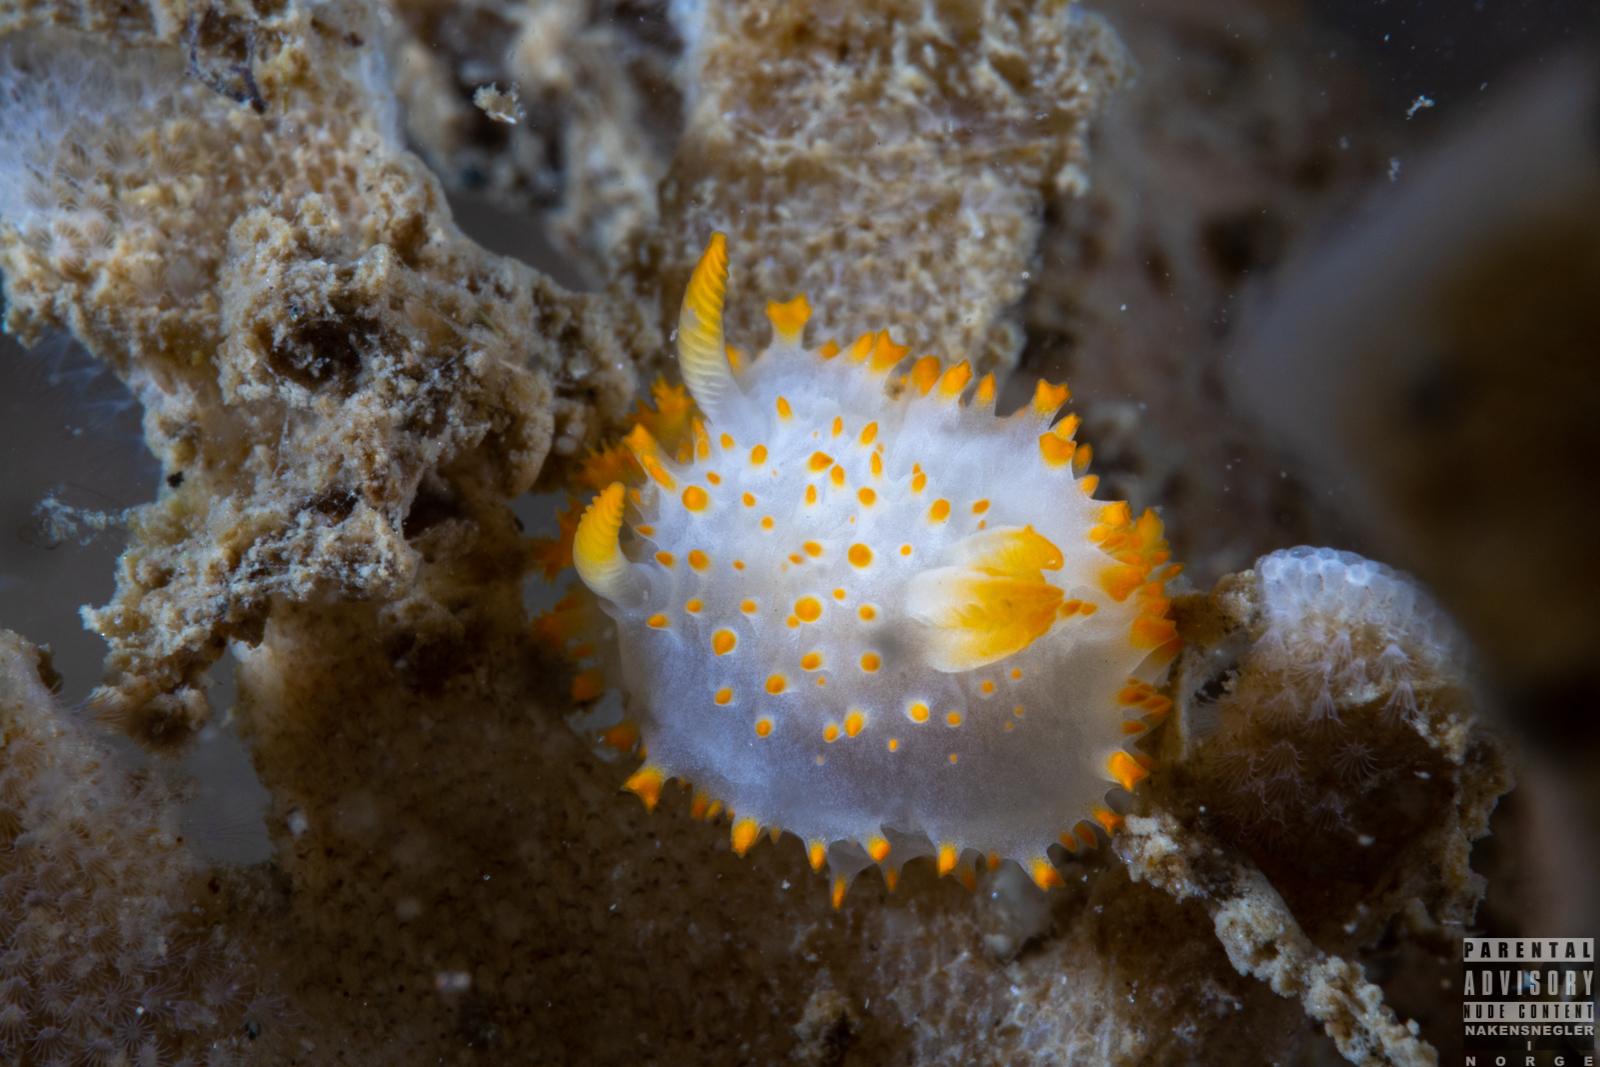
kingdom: Animalia
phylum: Mollusca
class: Gastropoda
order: Nudibranchia
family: Polyceridae
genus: Crimora
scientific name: Crimora papillata
